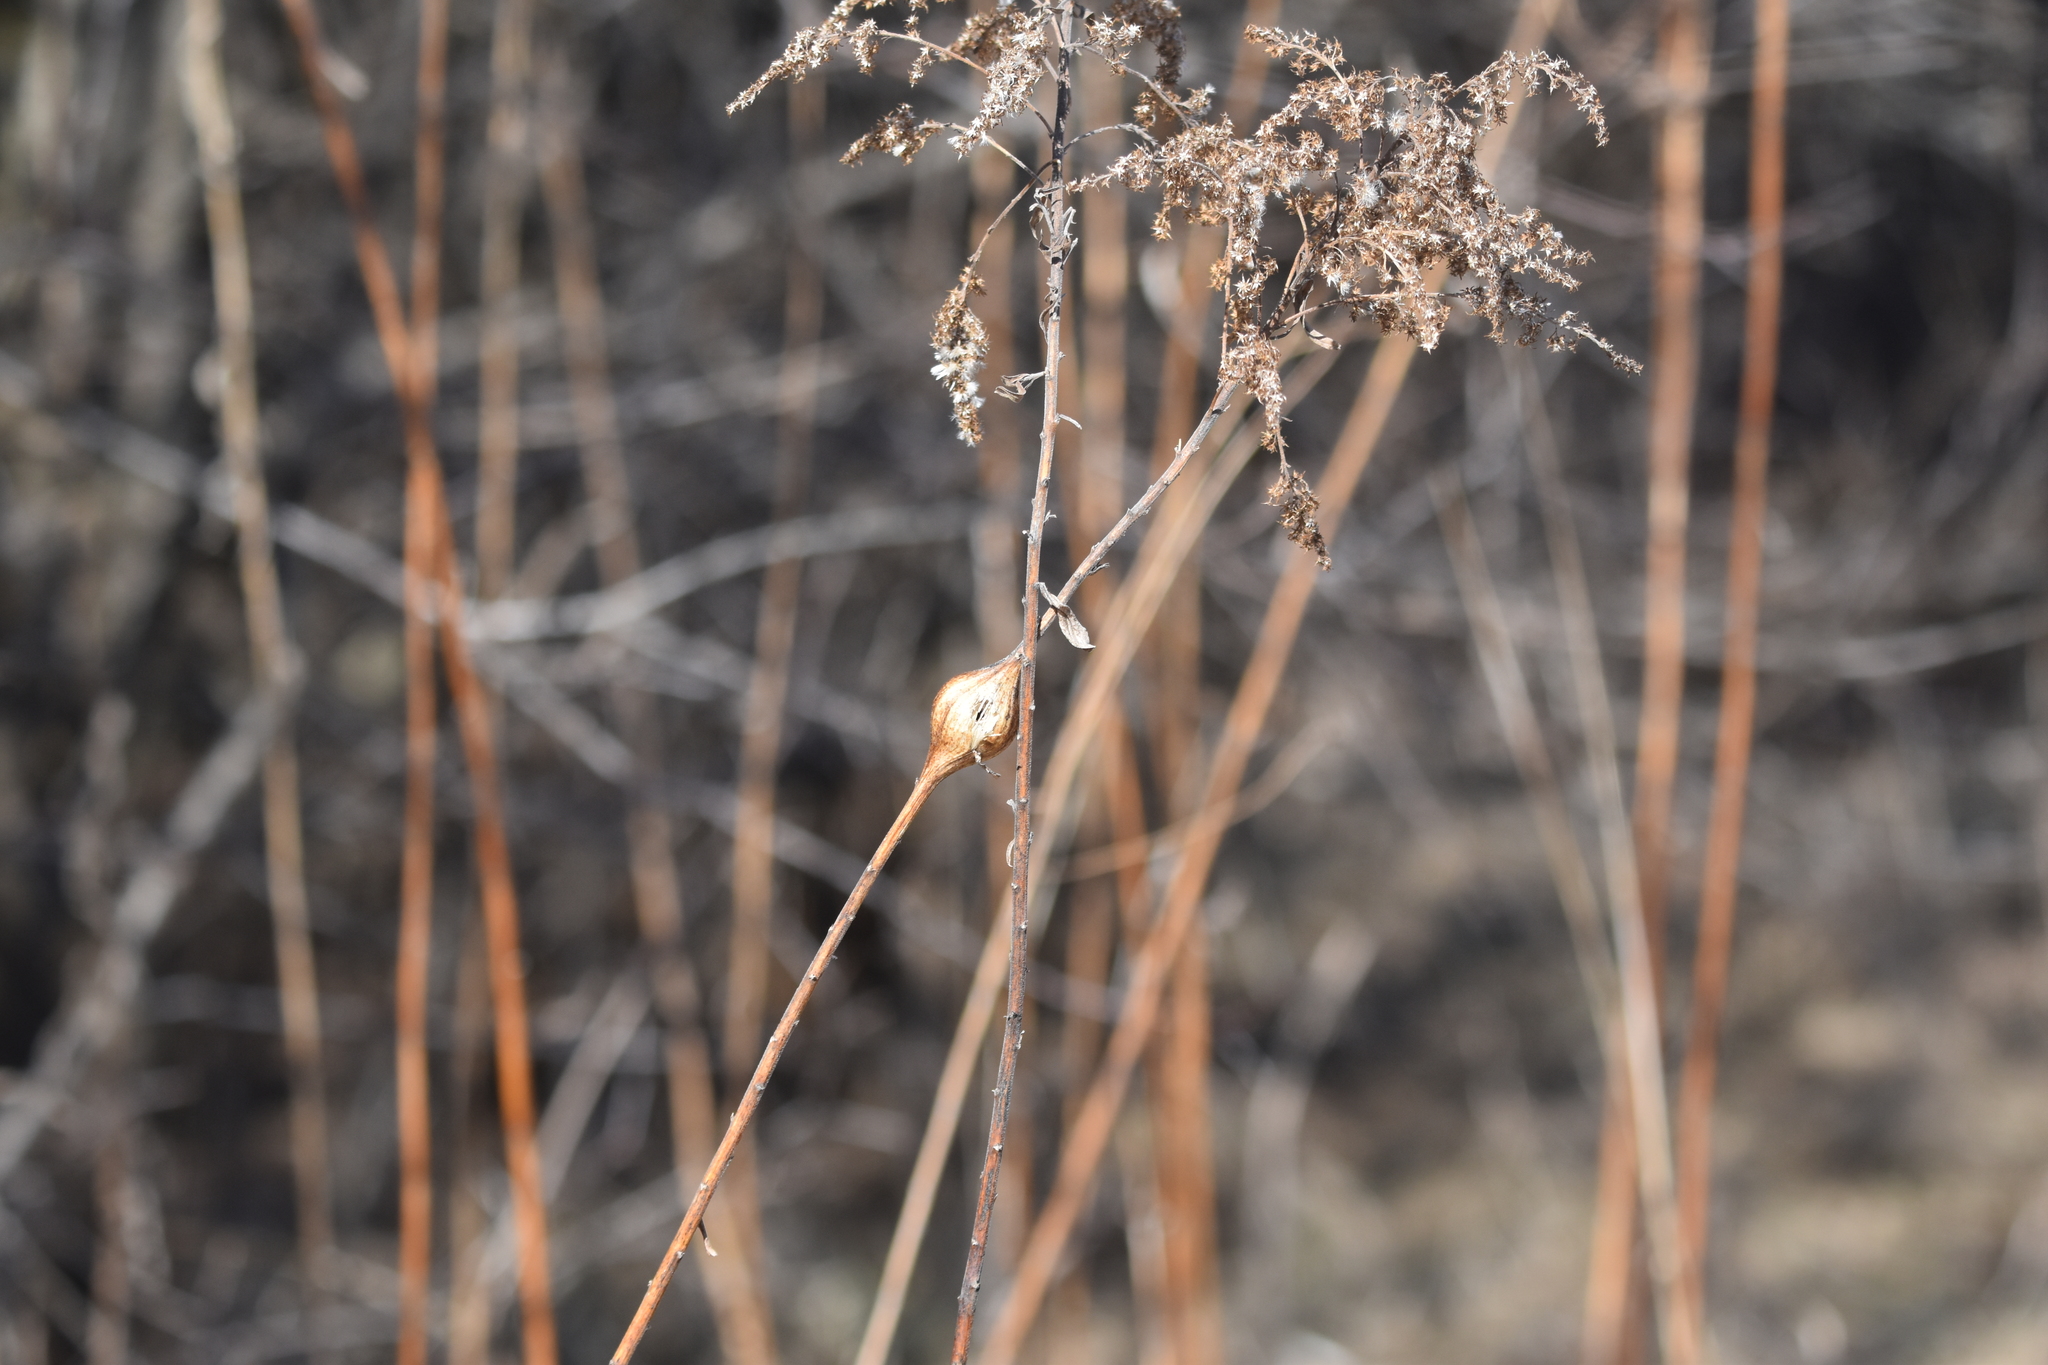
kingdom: Animalia
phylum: Arthropoda
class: Insecta
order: Diptera
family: Tephritidae
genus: Eurosta
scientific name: Eurosta solidaginis
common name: Goldenrod gall fly
